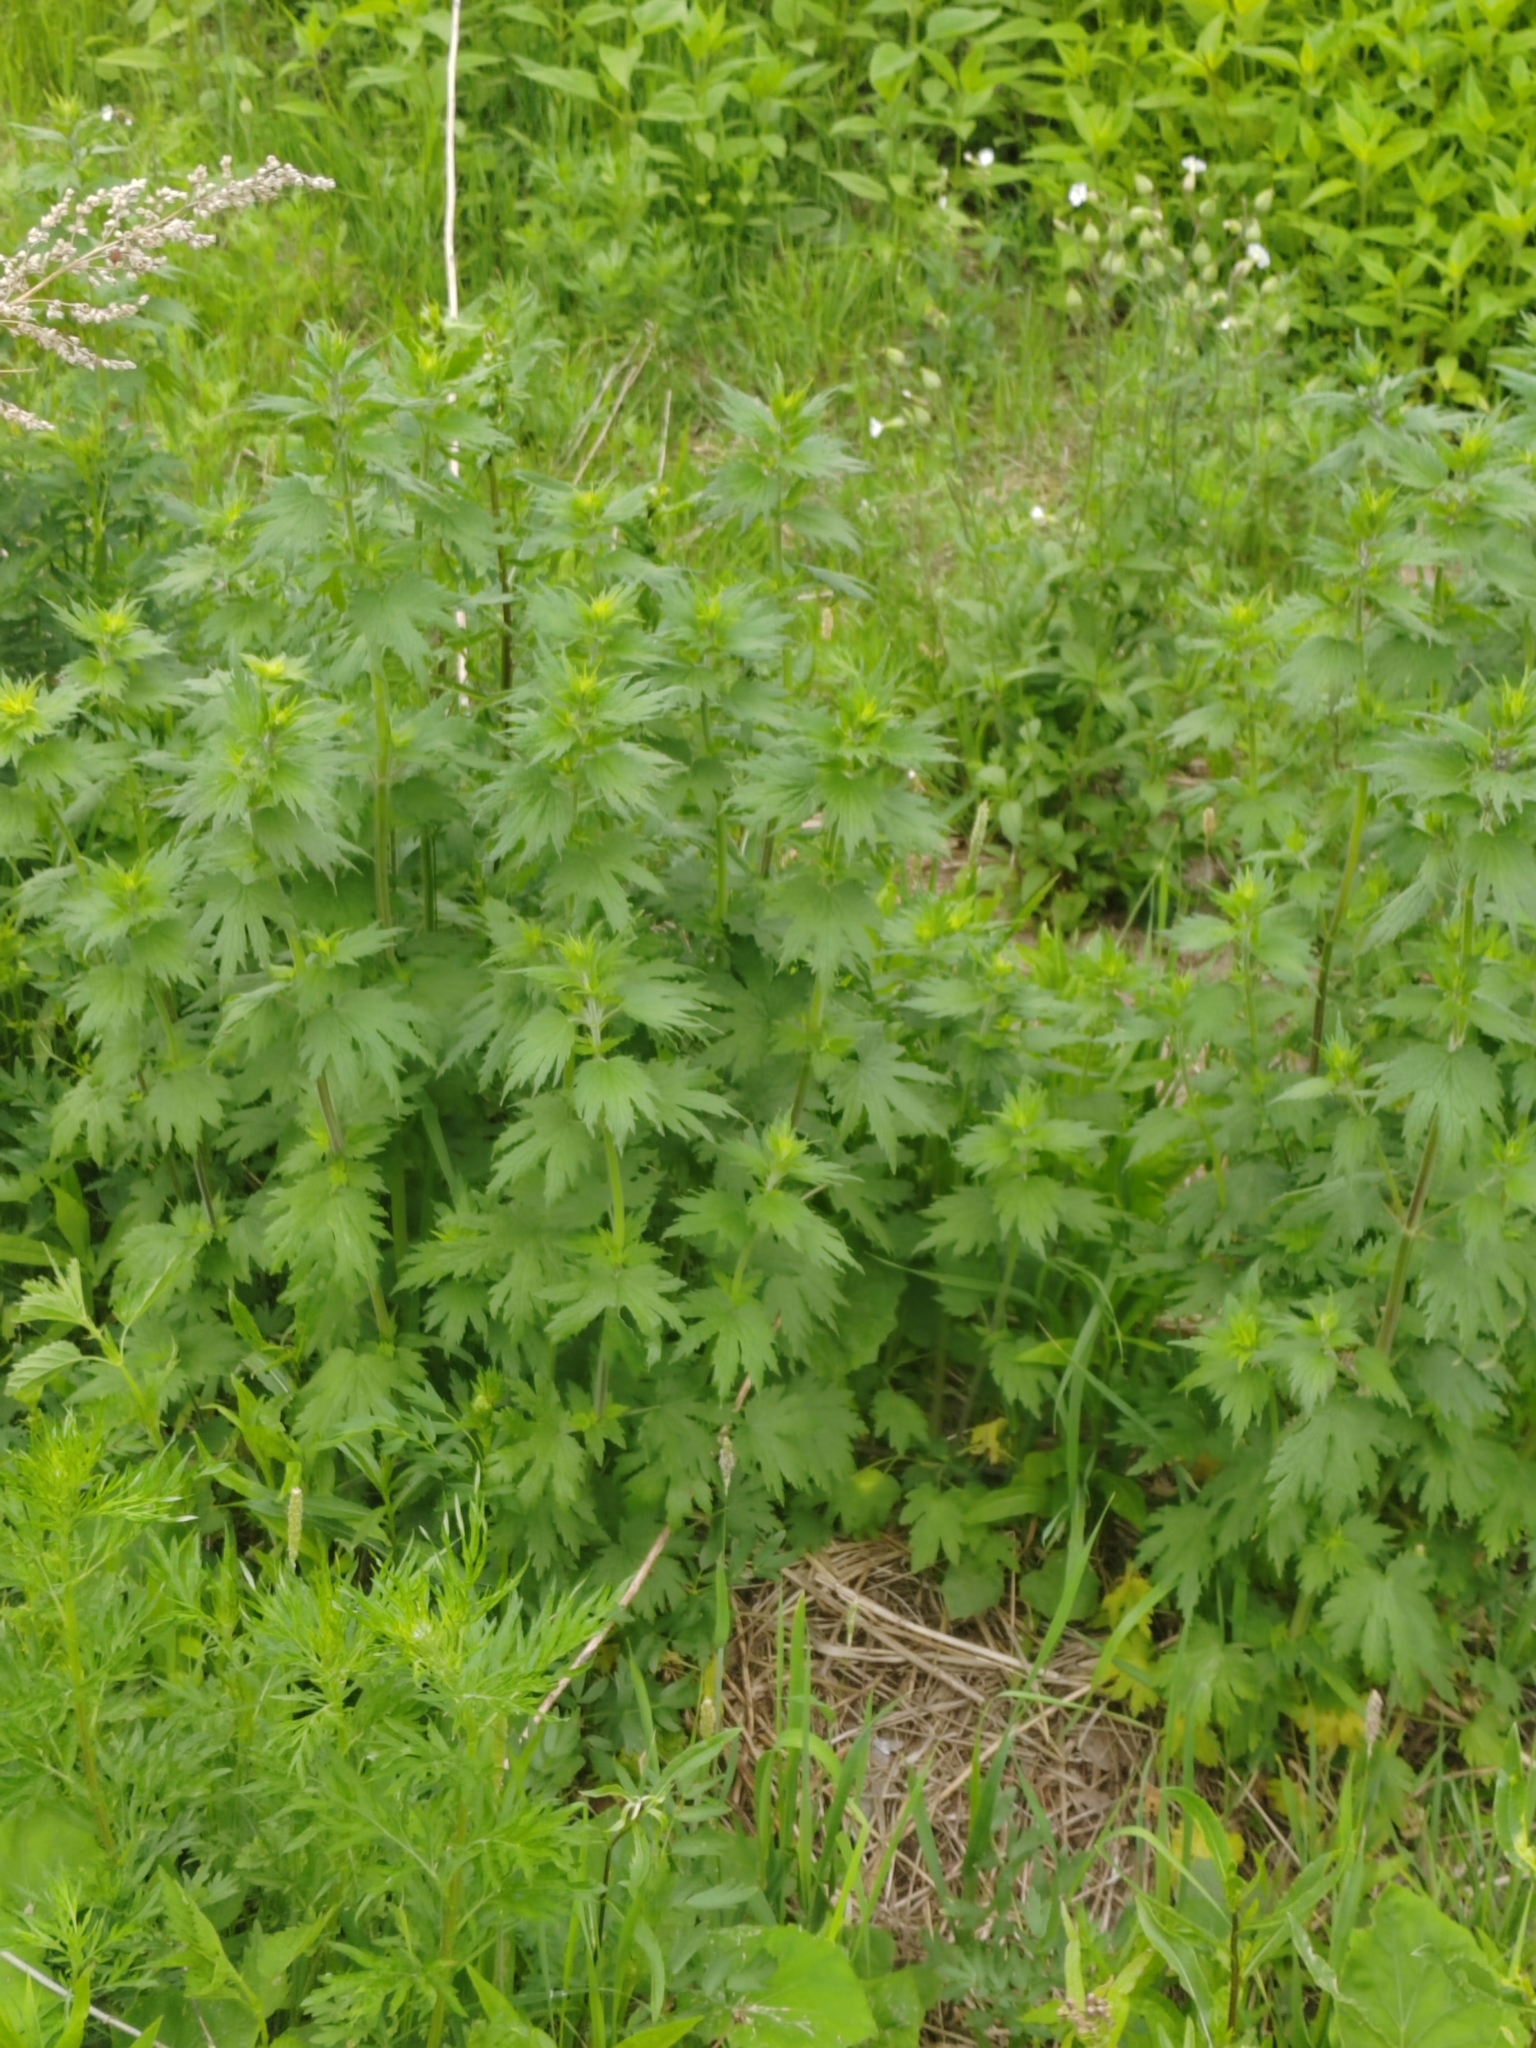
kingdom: Plantae
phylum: Tracheophyta
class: Magnoliopsida
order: Lamiales
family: Lamiaceae
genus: Leonurus
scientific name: Leonurus quinquelobatus
